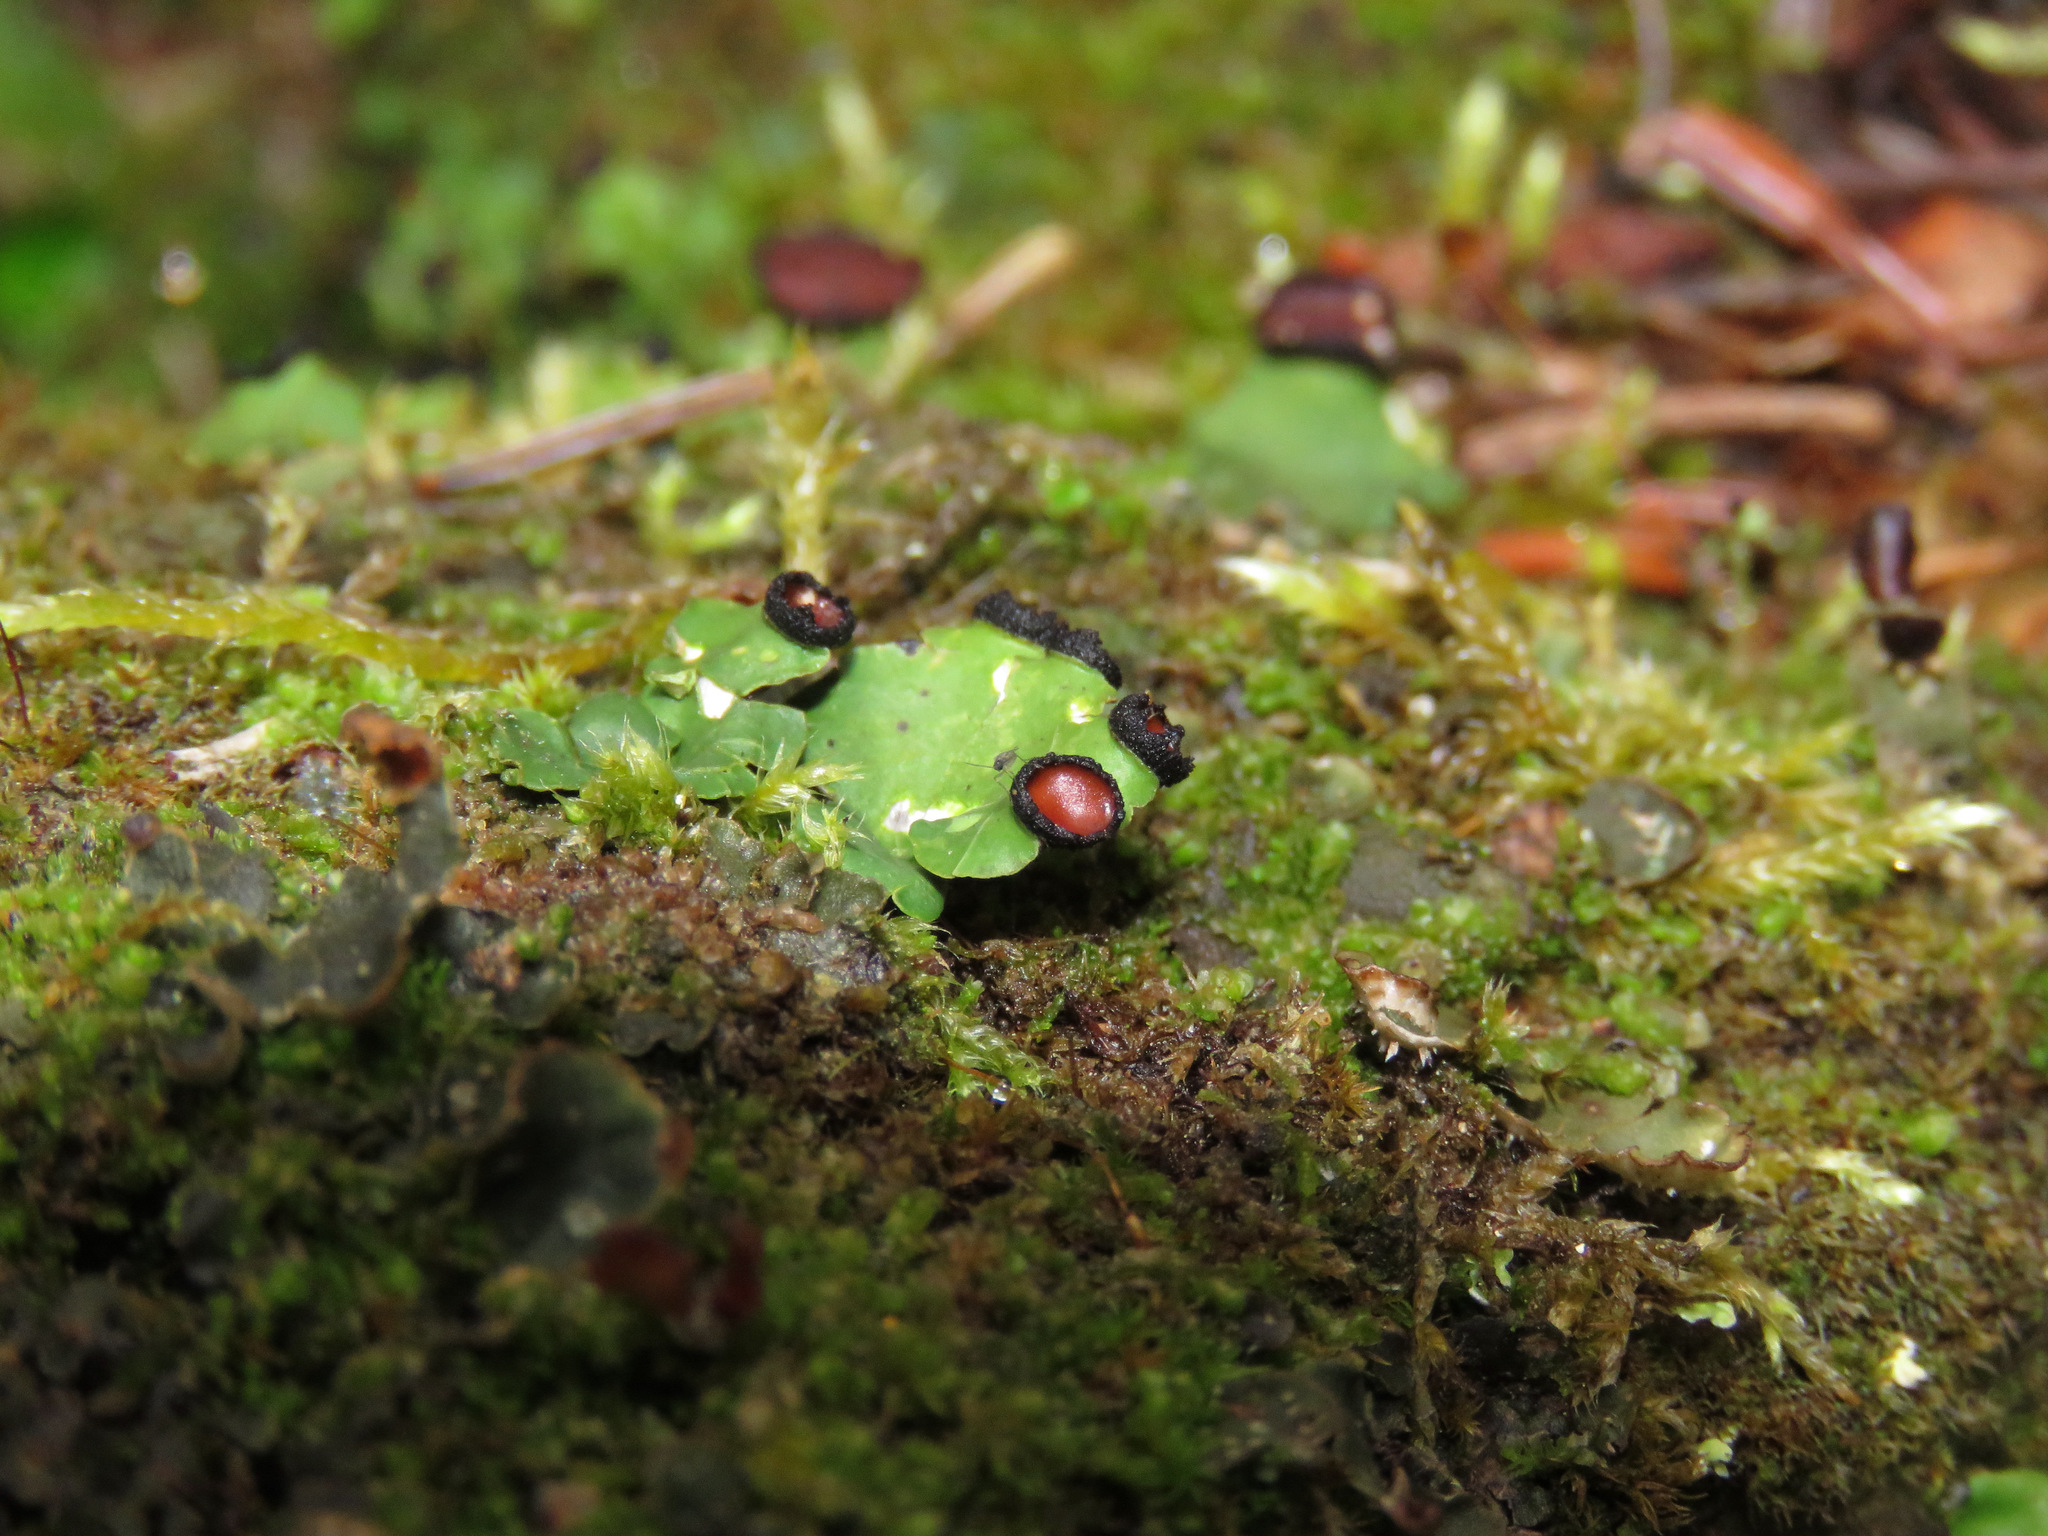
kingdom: Fungi
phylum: Ascomycota
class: Lecanoromycetes
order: Peltigerales
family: Peltigeraceae
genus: Peltigera
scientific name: Peltigera venosa
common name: Pixie gowns lichen
